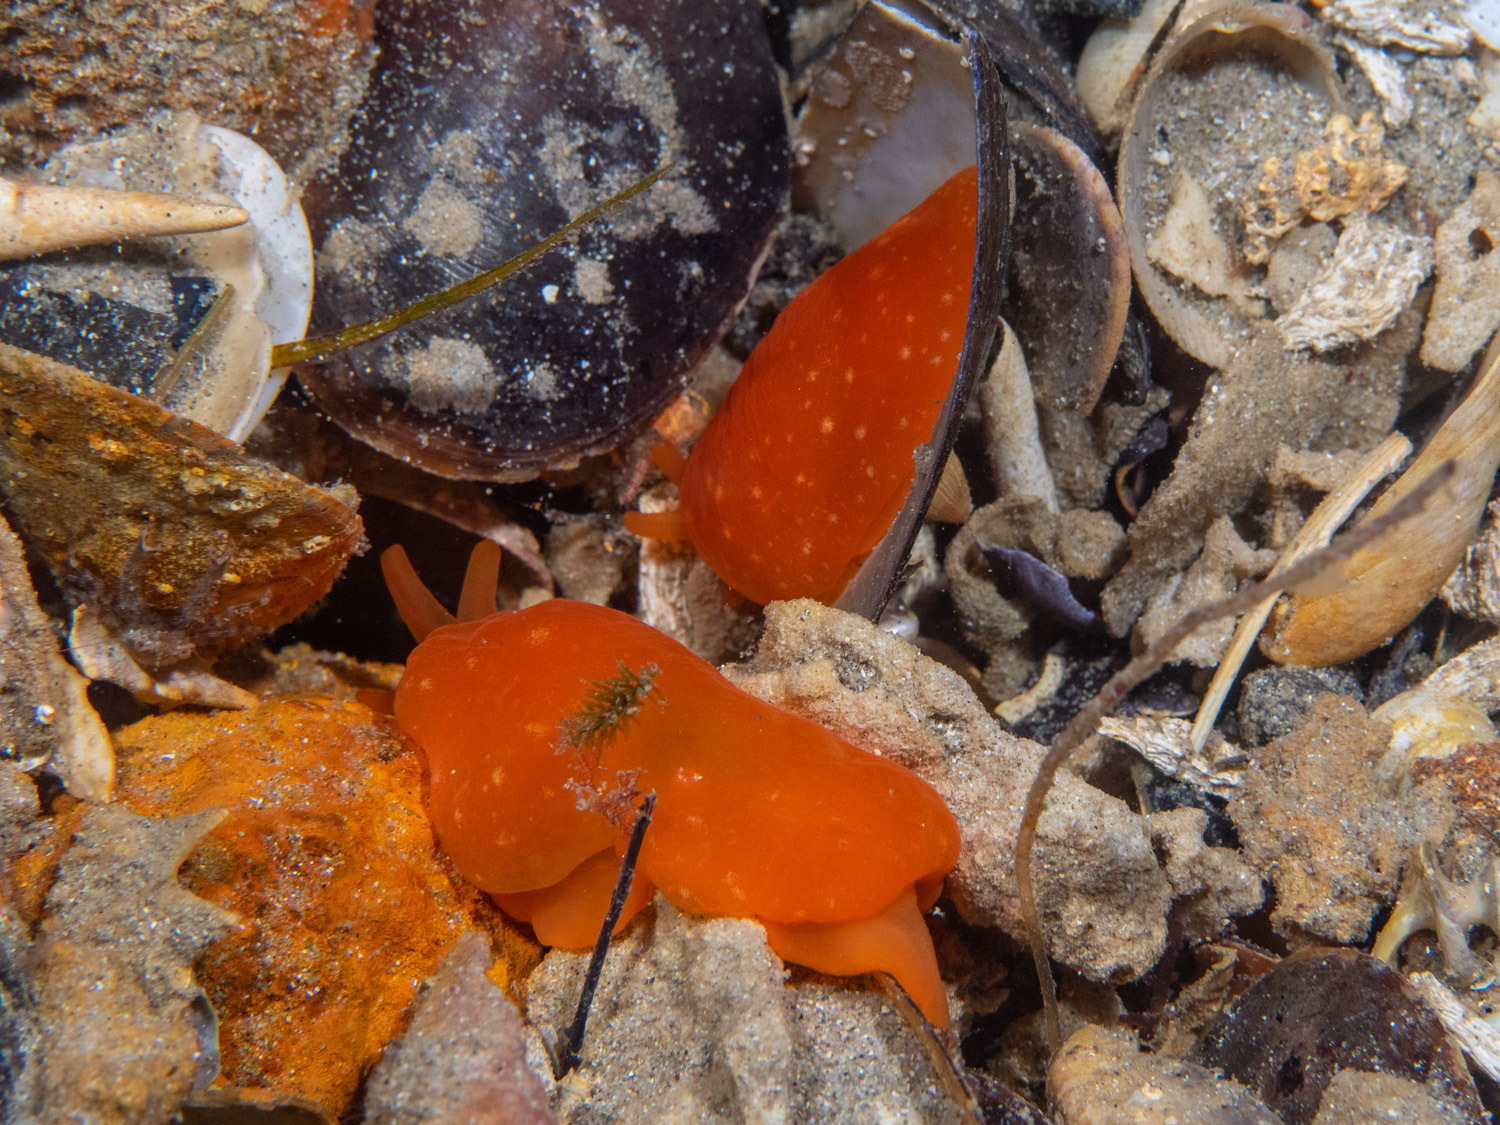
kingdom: Animalia
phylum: Mollusca
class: Gastropoda
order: Pleurobranchida
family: Pleurobranchidae
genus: Berthellina
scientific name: Berthellina citrina
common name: Lemon pleurobranch
